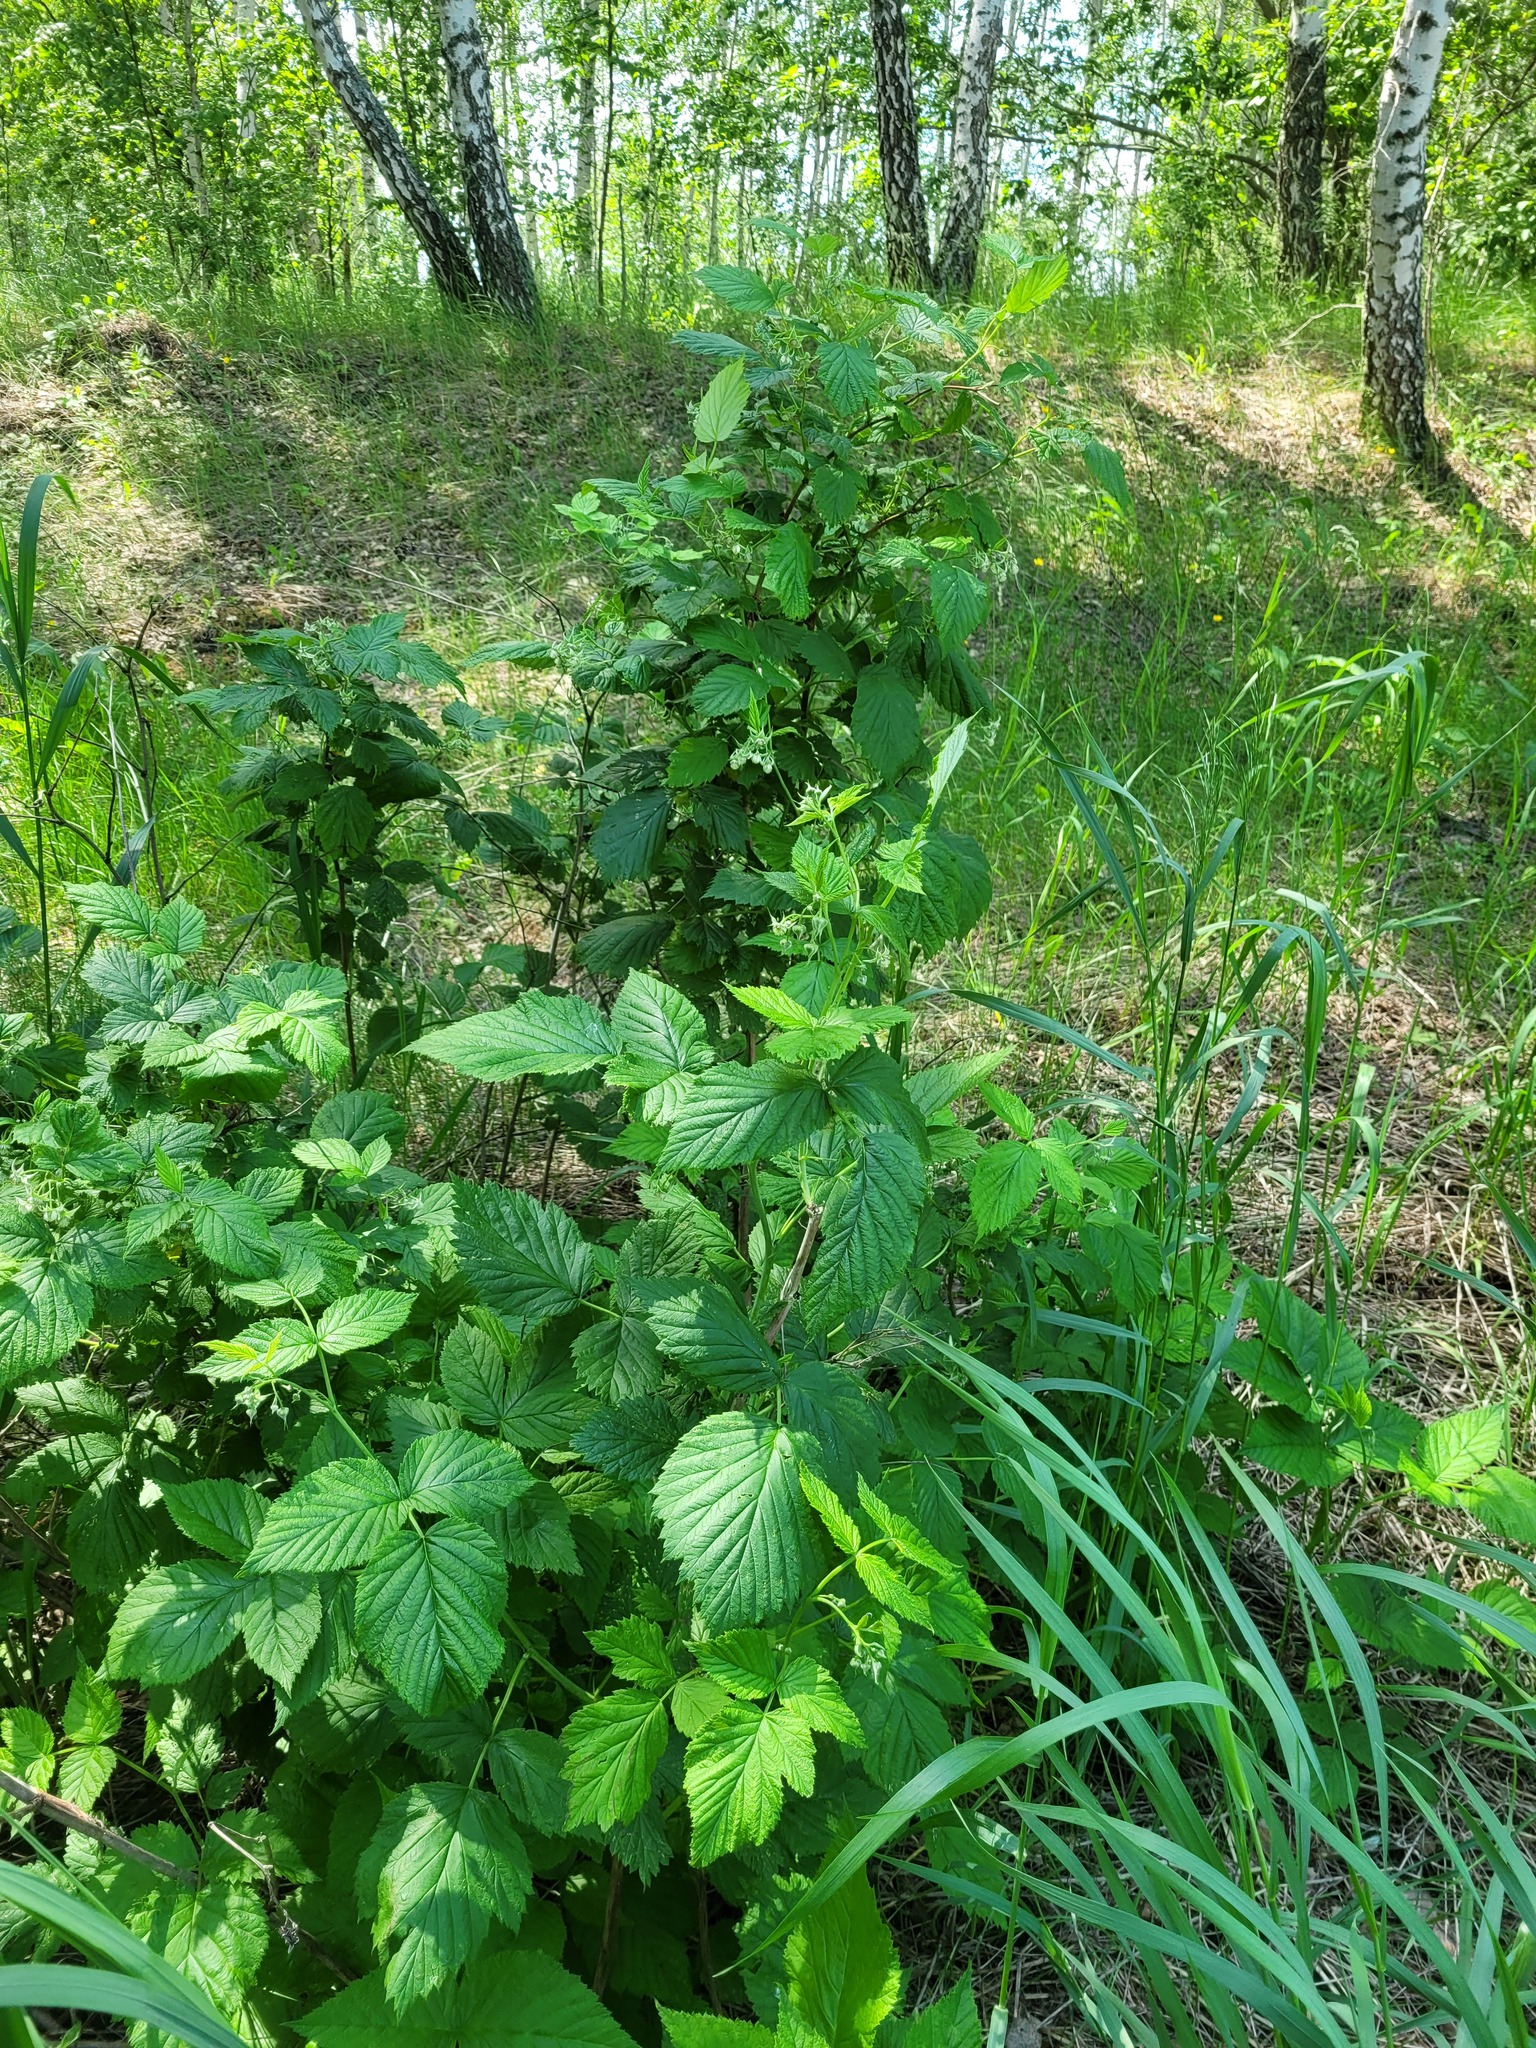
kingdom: Plantae
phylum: Tracheophyta
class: Magnoliopsida
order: Rosales
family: Rosaceae
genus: Rubus
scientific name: Rubus idaeus
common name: Raspberry
